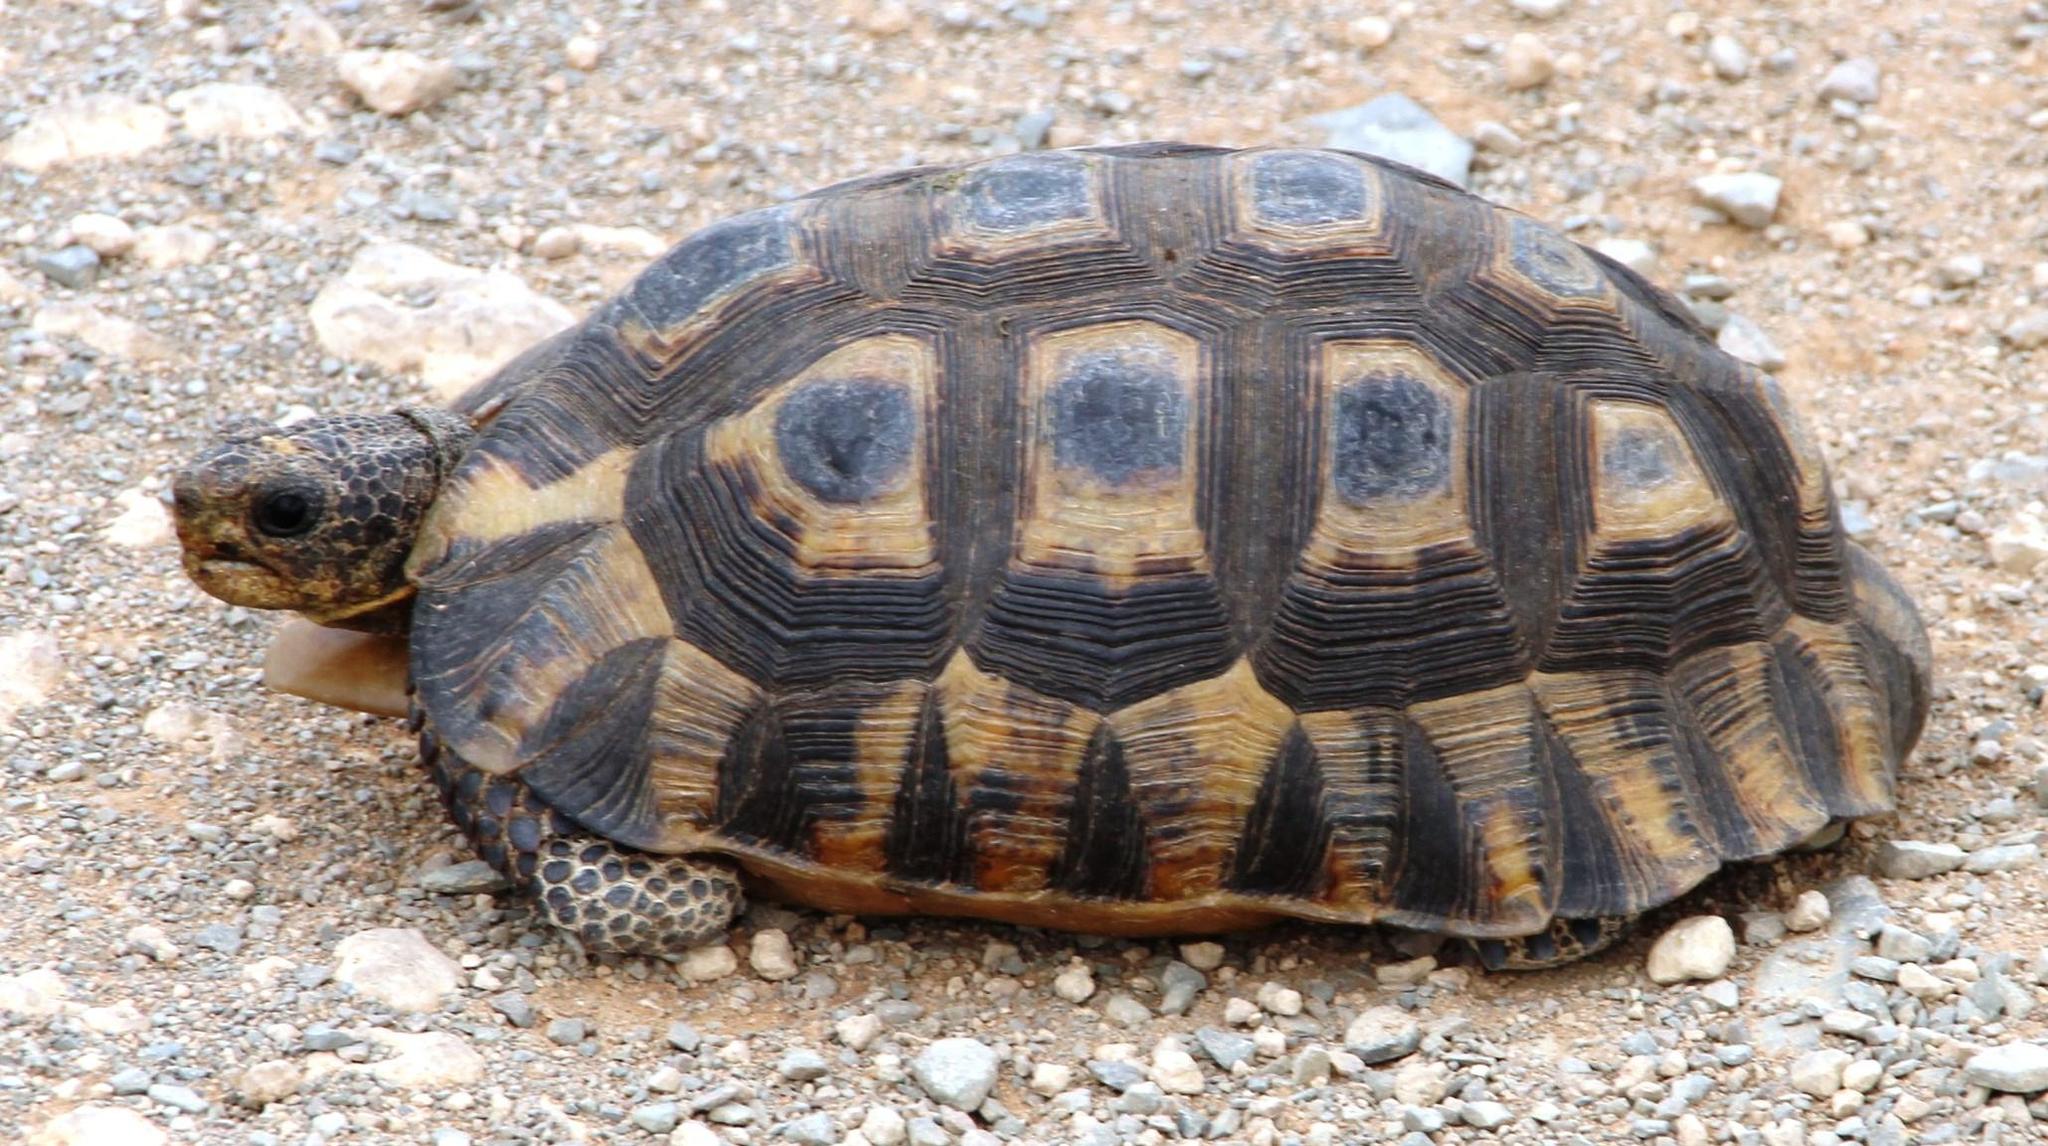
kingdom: Animalia
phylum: Chordata
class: Testudines
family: Testudinidae
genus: Chersina
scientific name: Chersina angulata
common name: South african bowsprit tortoise
